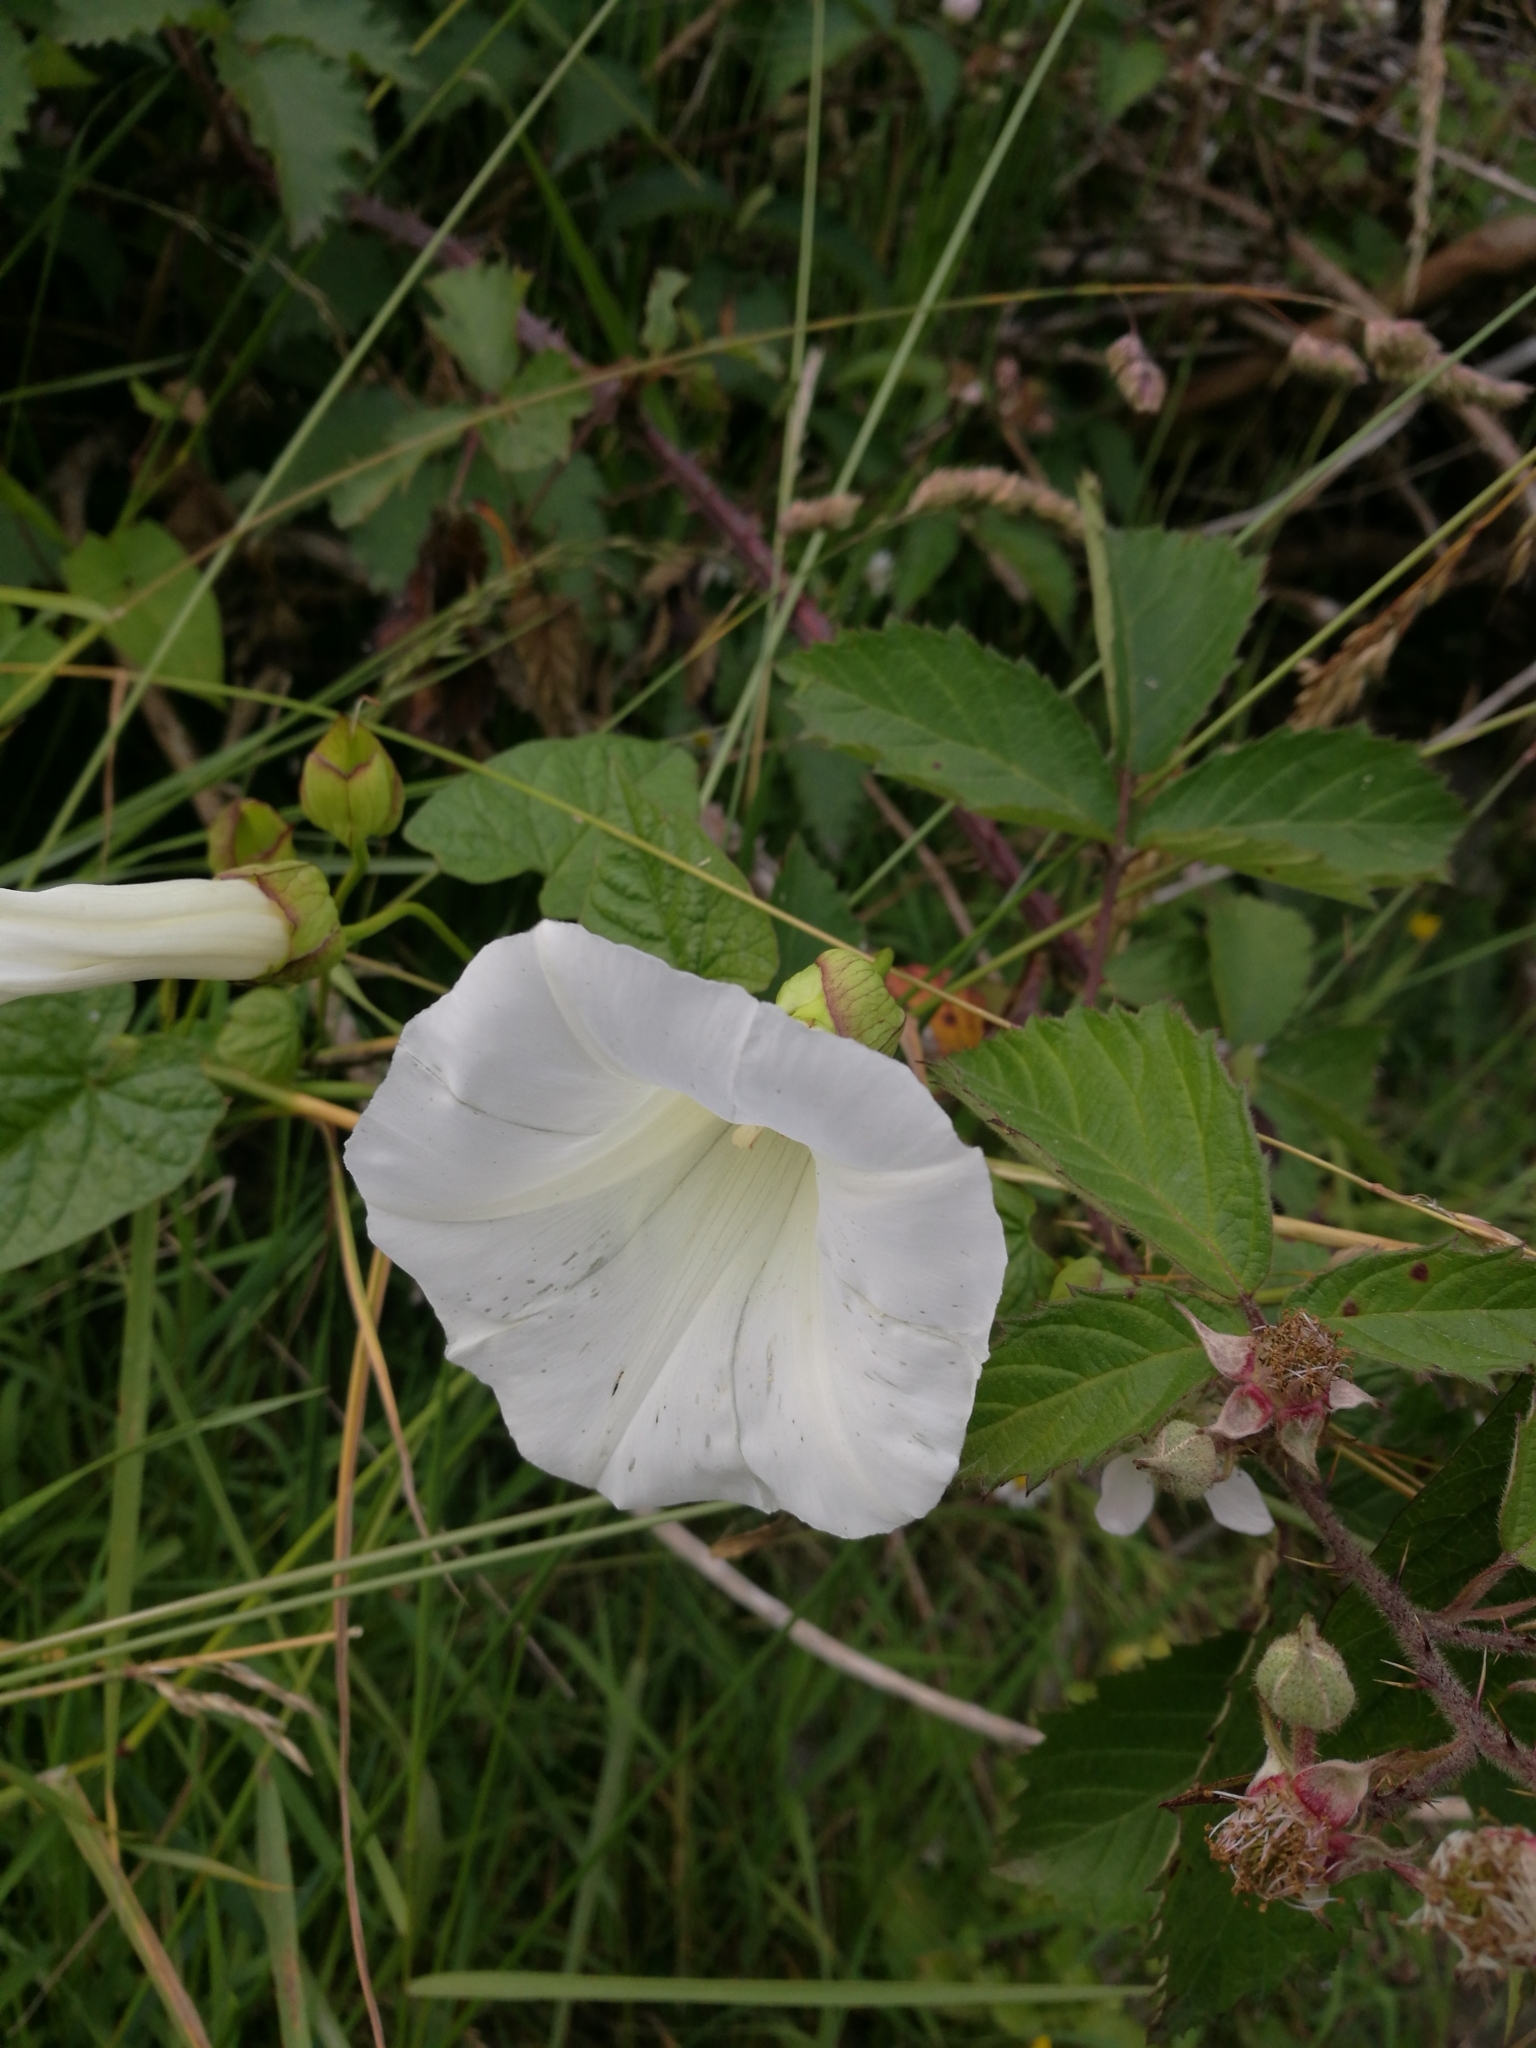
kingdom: Plantae
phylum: Tracheophyta
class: Magnoliopsida
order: Solanales
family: Convolvulaceae
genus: Calystegia
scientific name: Calystegia silvatica
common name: Large bindweed
